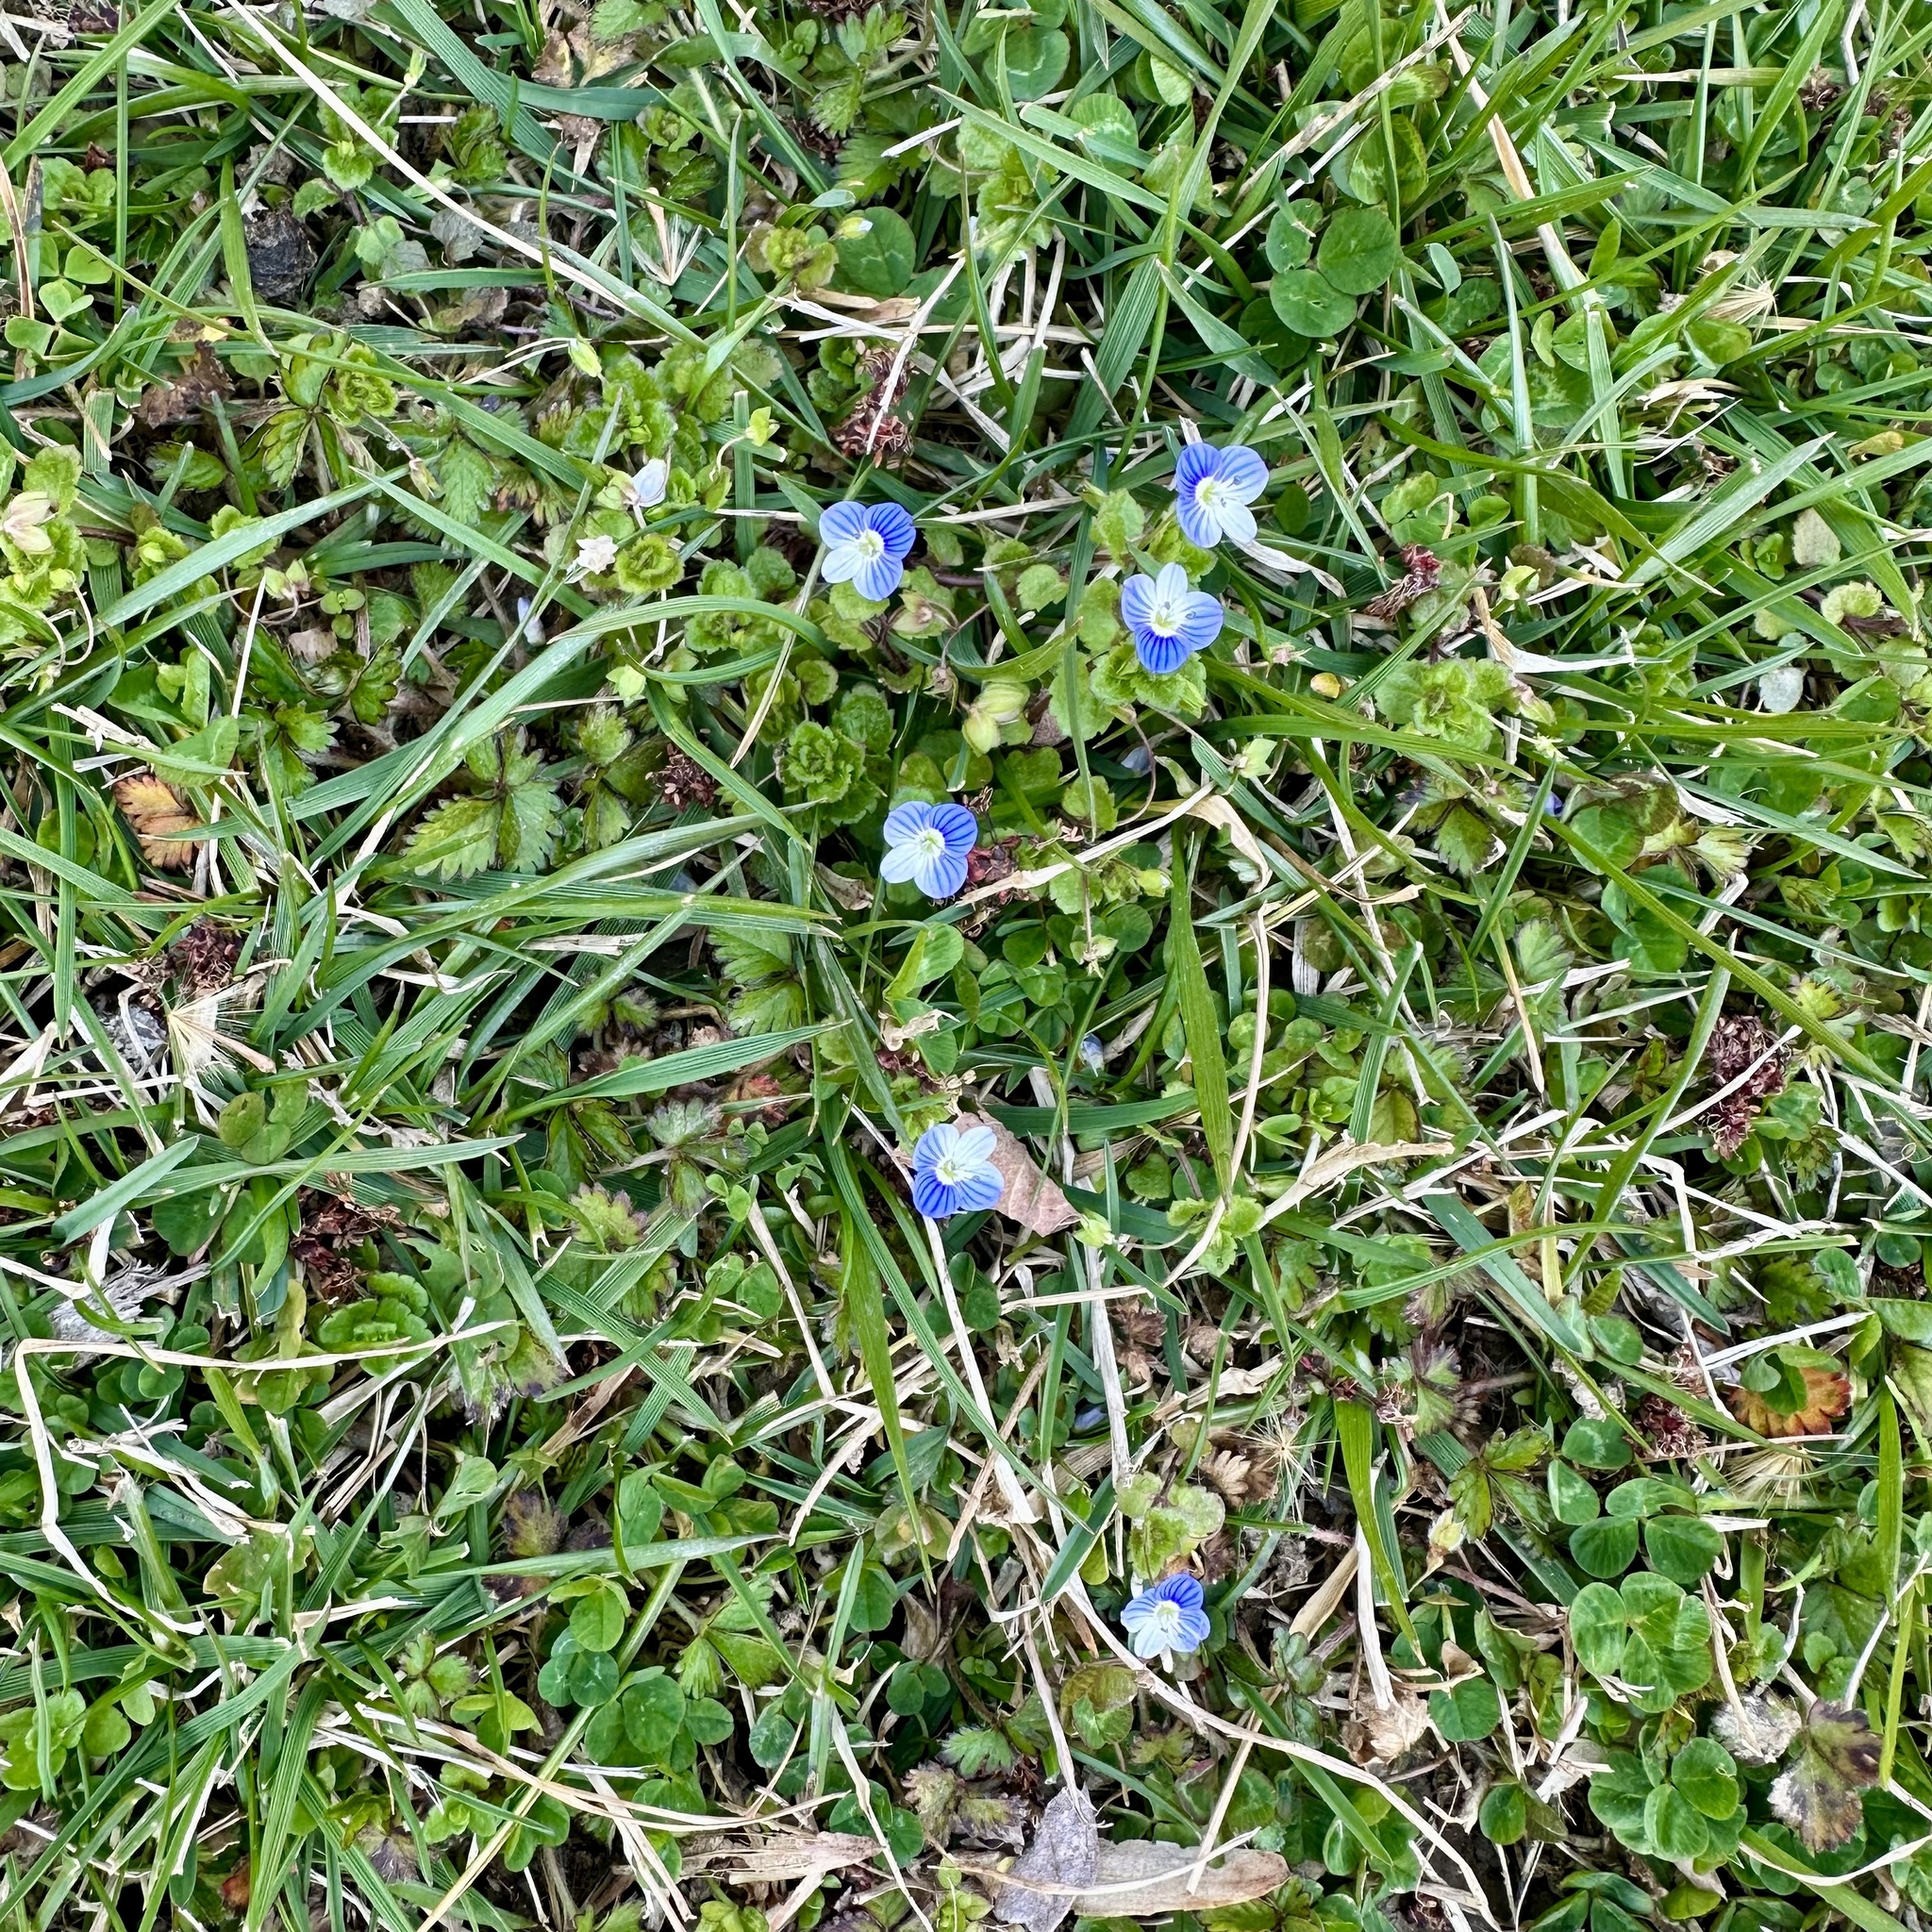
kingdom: Plantae
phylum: Tracheophyta
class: Magnoliopsida
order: Lamiales
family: Plantaginaceae
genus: Veronica
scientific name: Veronica persica
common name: Common field-speedwell
